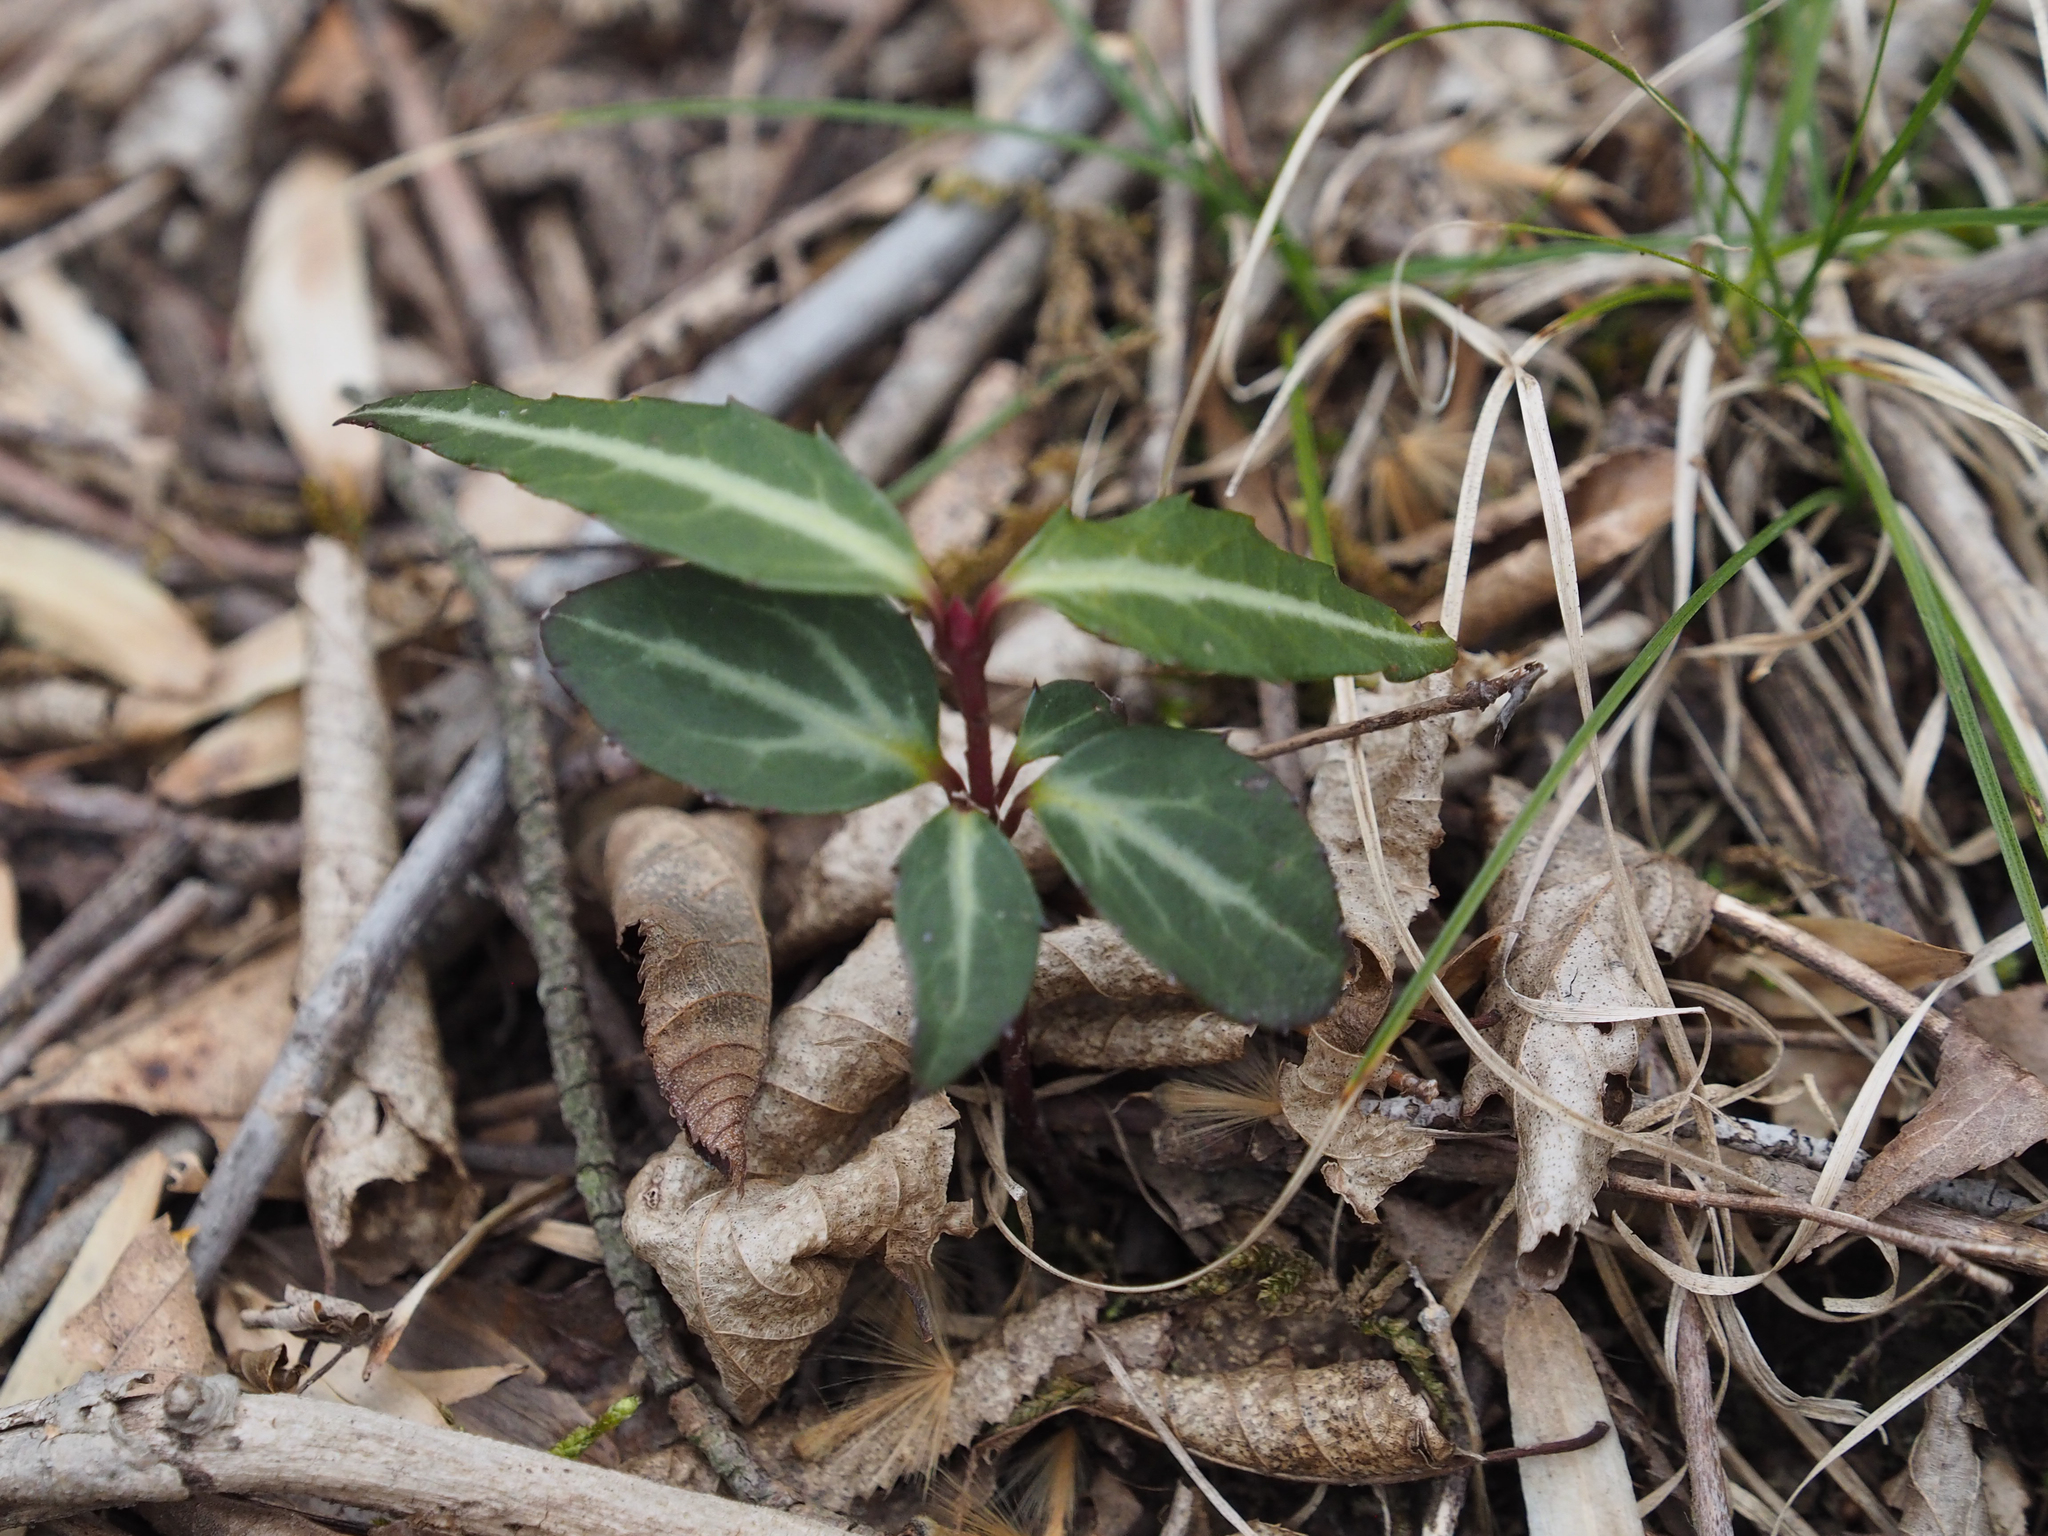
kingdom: Plantae
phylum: Tracheophyta
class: Magnoliopsida
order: Ericales
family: Ericaceae
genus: Chimaphila
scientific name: Chimaphila maculata
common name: Spotted pipsissewa
